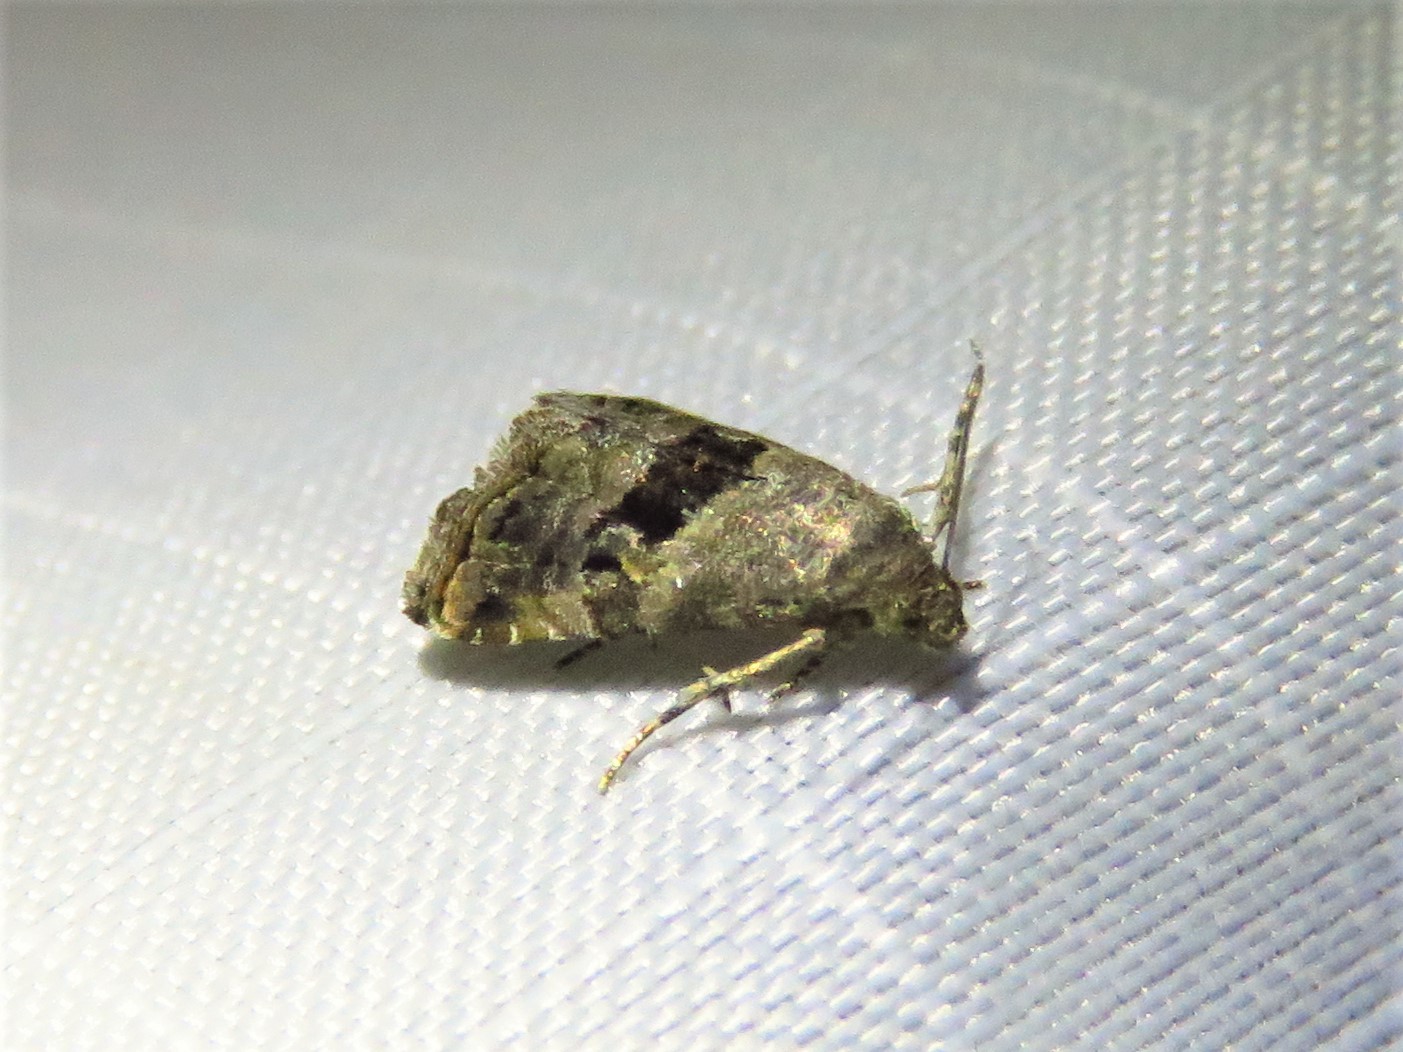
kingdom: Animalia
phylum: Arthropoda
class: Insecta
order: Lepidoptera
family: Noctuidae
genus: Tripudia
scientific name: Tripudia quadrifera
